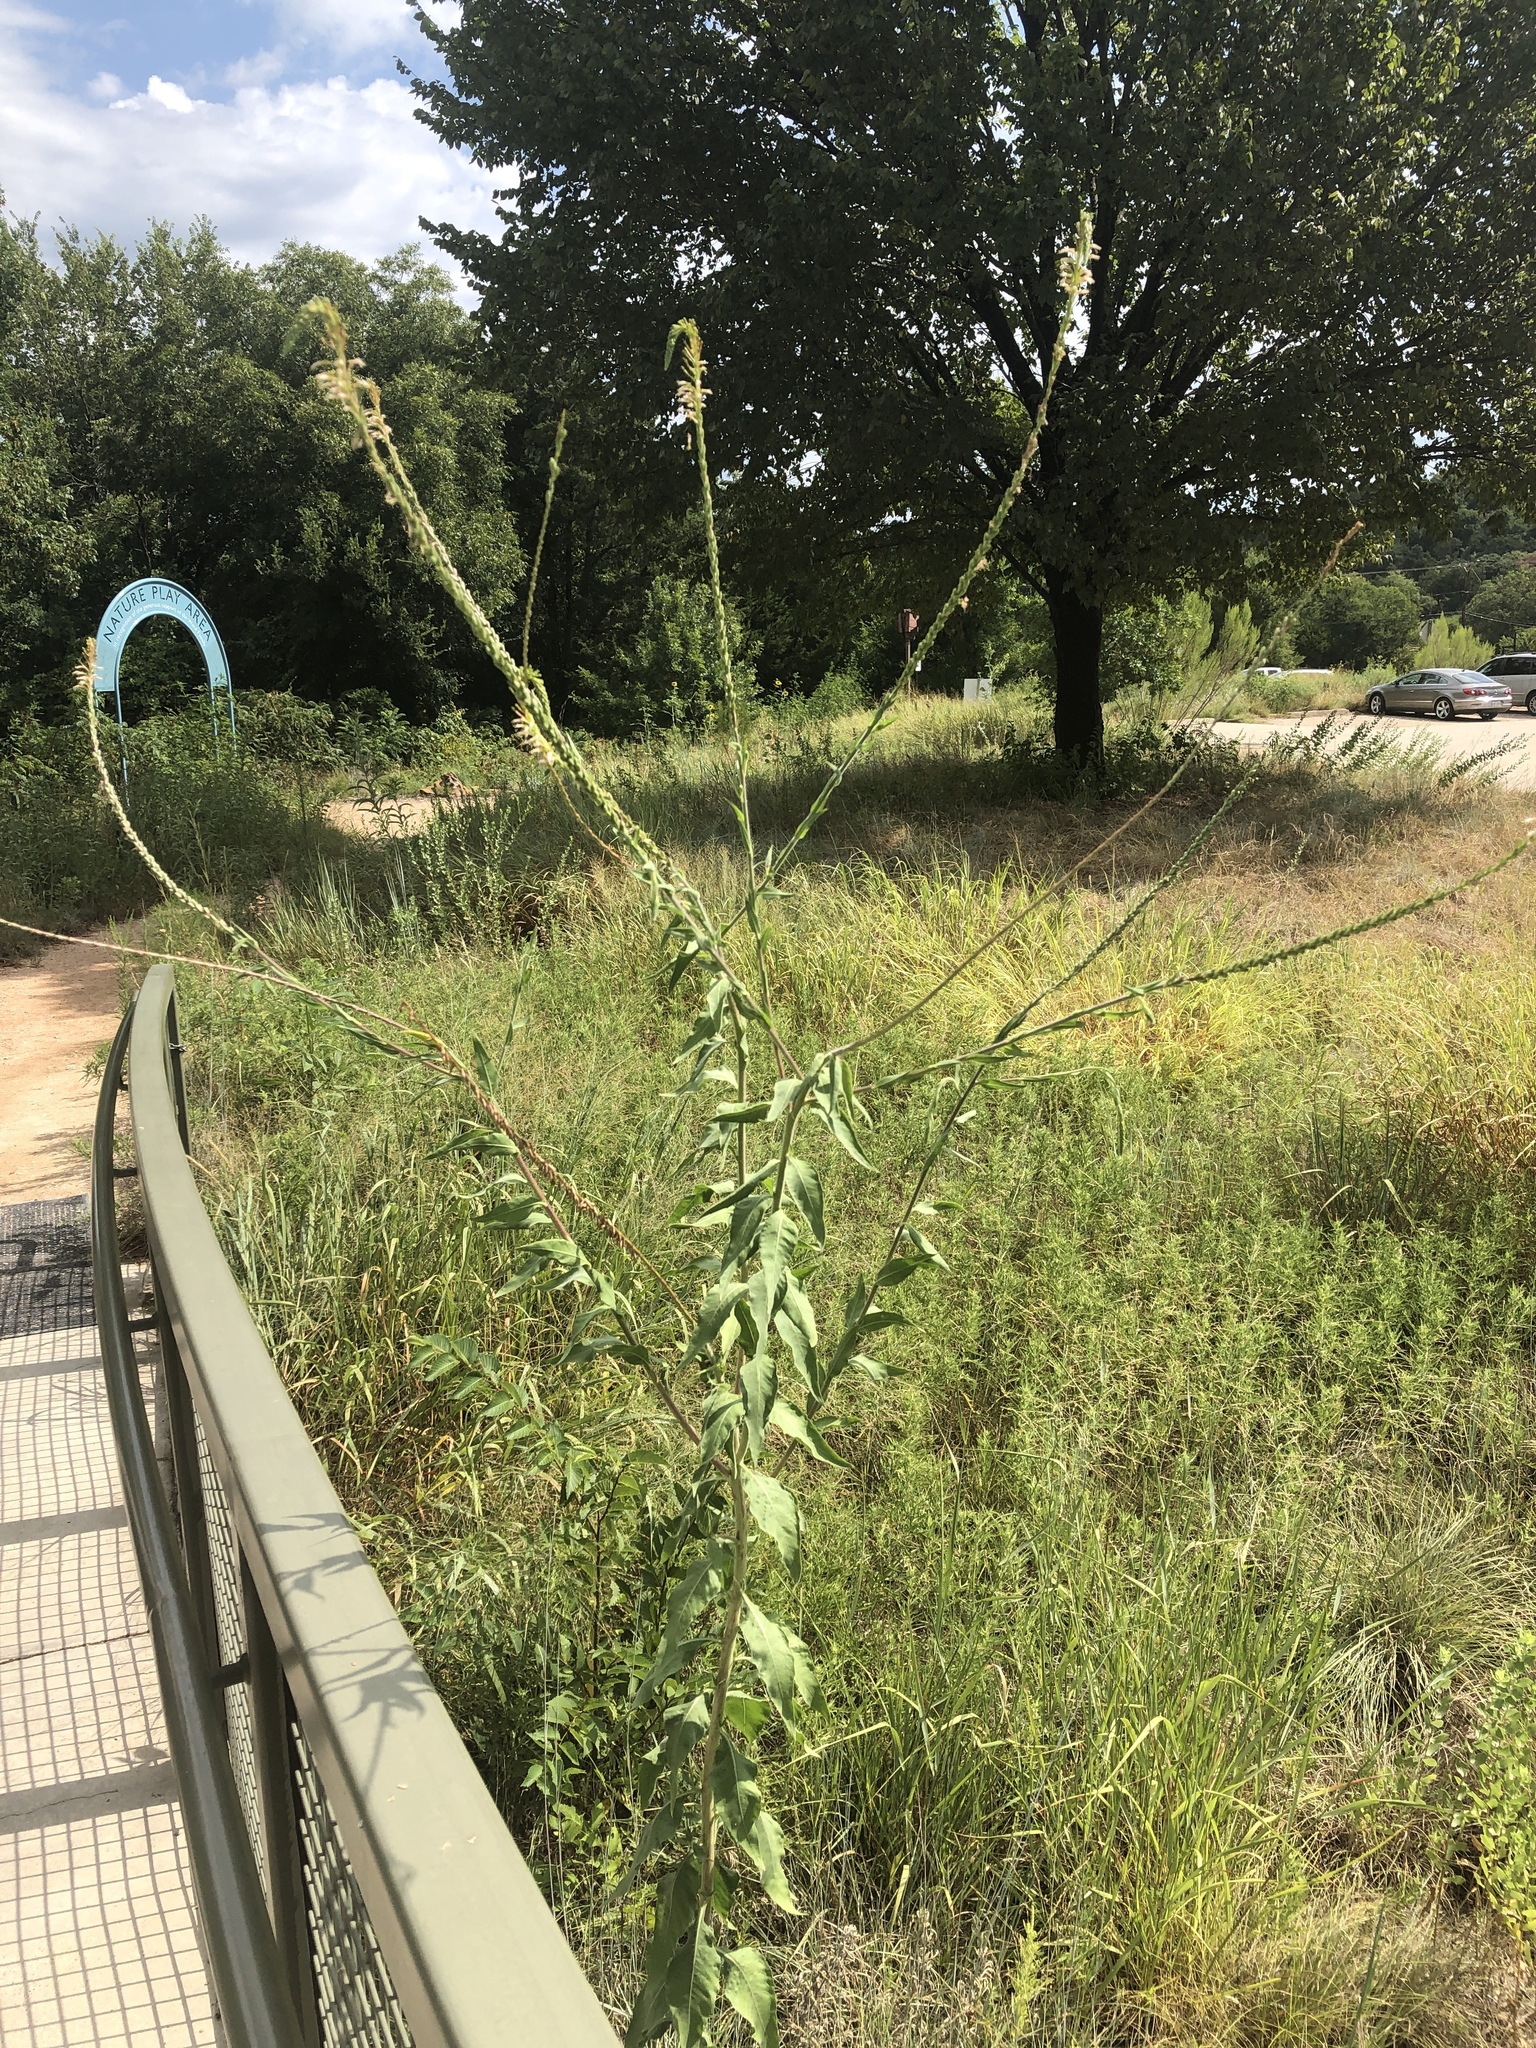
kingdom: Plantae
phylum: Tracheophyta
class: Magnoliopsida
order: Myrtales
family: Onagraceae
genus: Oenothera
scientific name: Oenothera curtiflora
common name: Velvetweed
